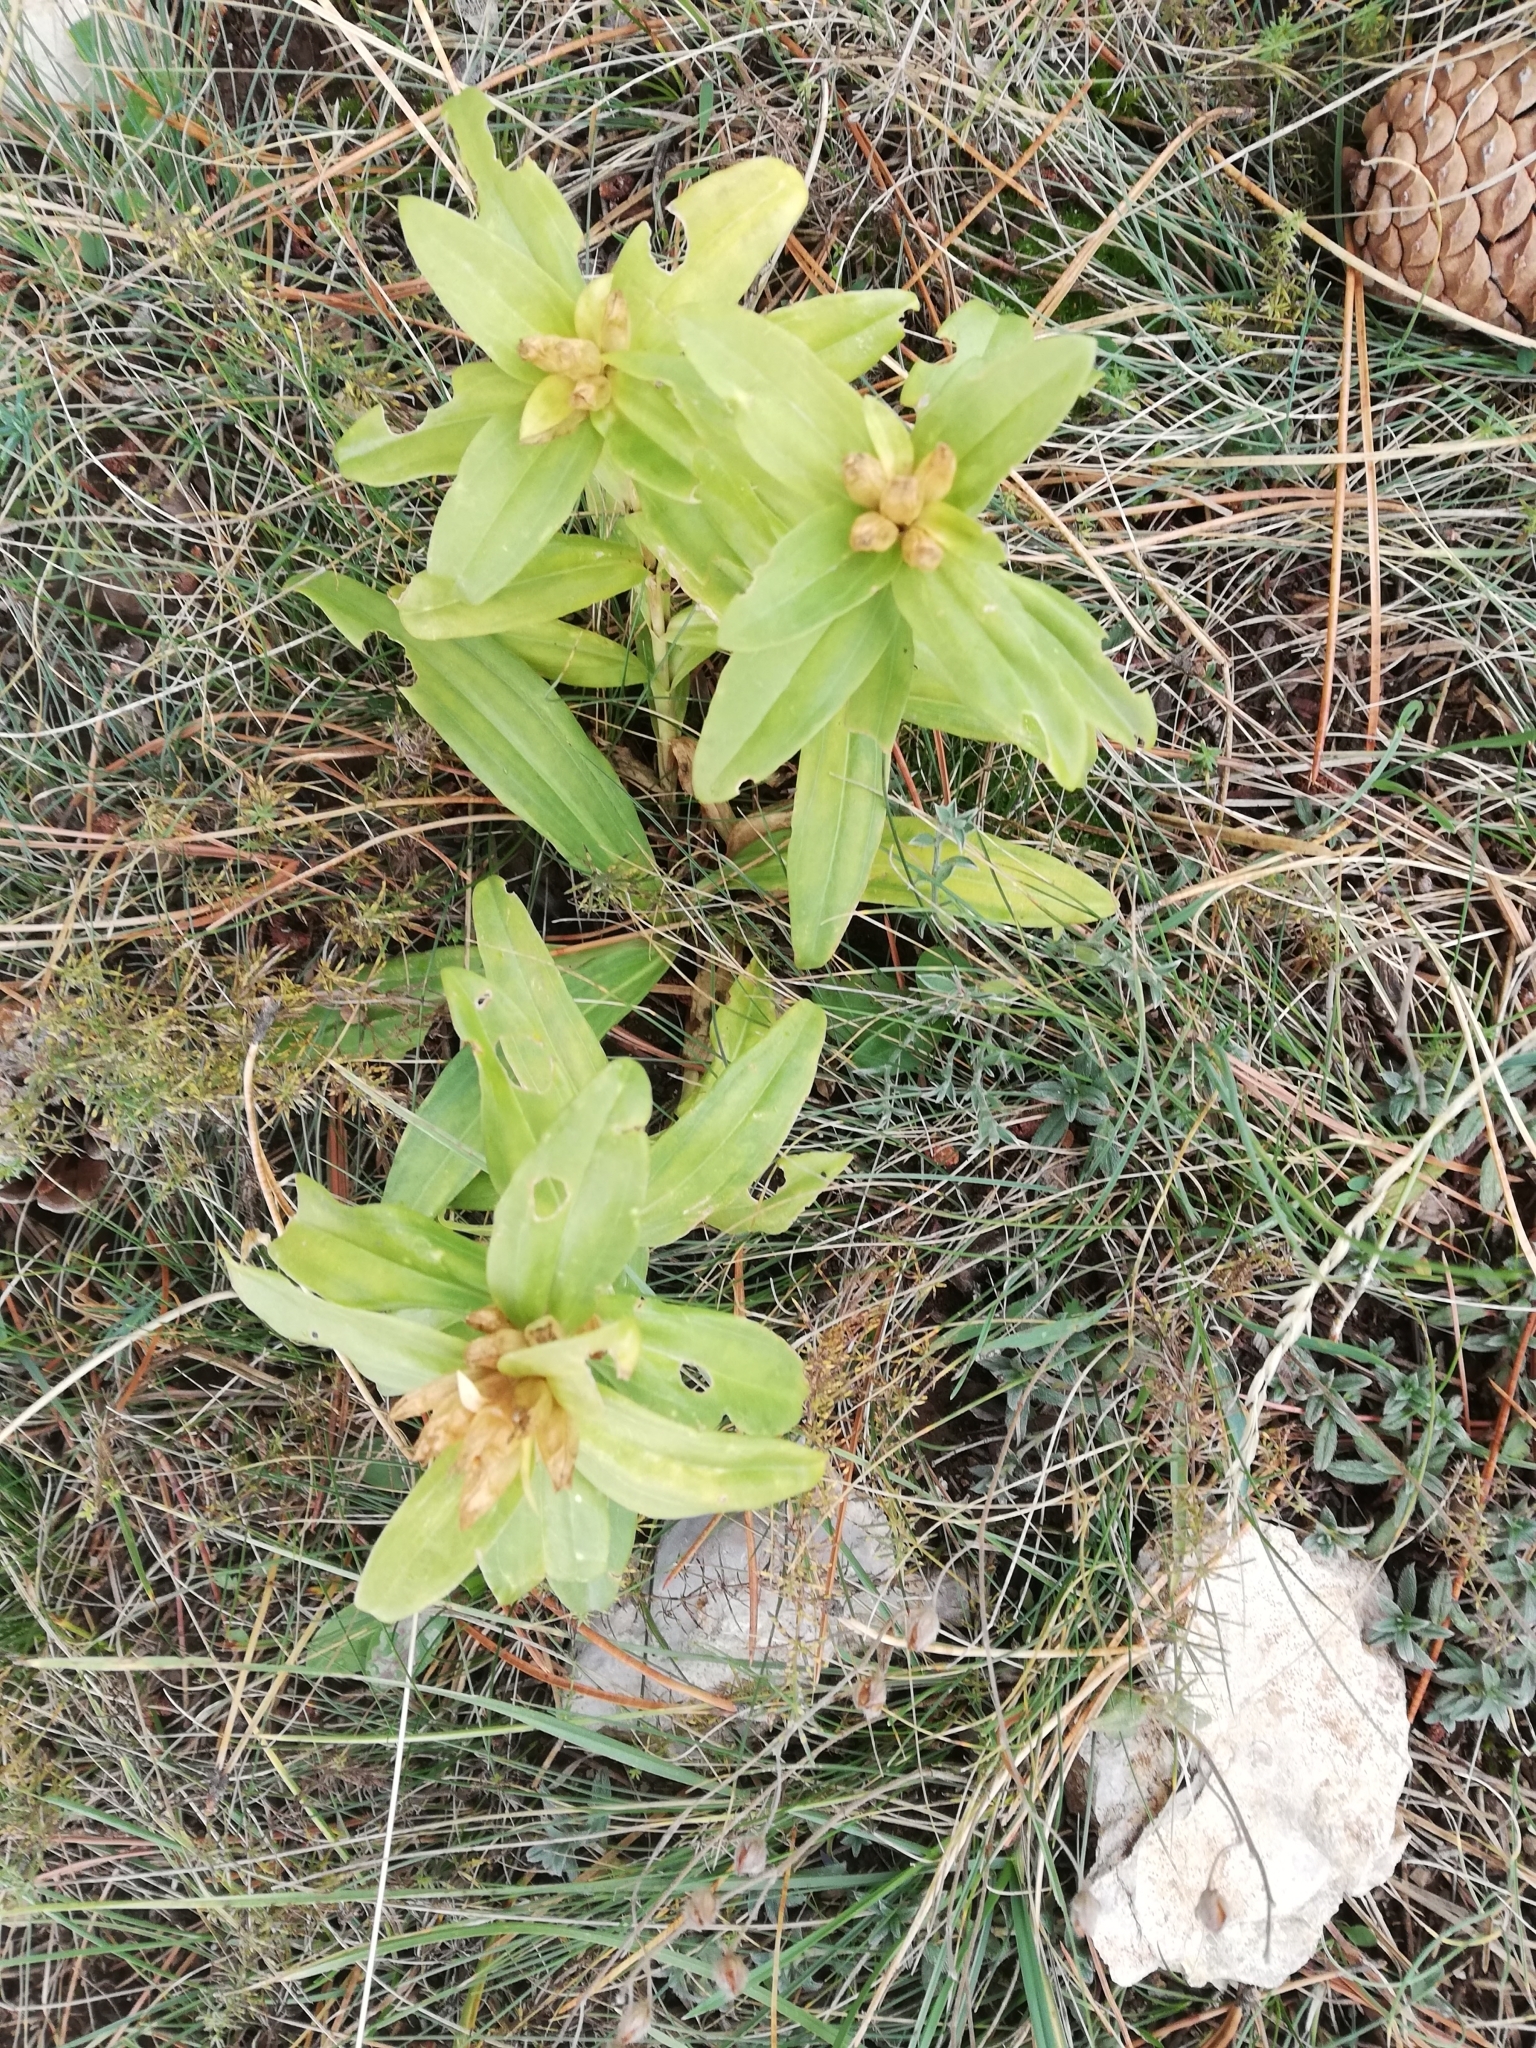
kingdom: Plantae
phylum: Tracheophyta
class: Magnoliopsida
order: Gentianales
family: Gentianaceae
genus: Gentiana
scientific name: Gentiana cruciata
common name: Cross gentian
